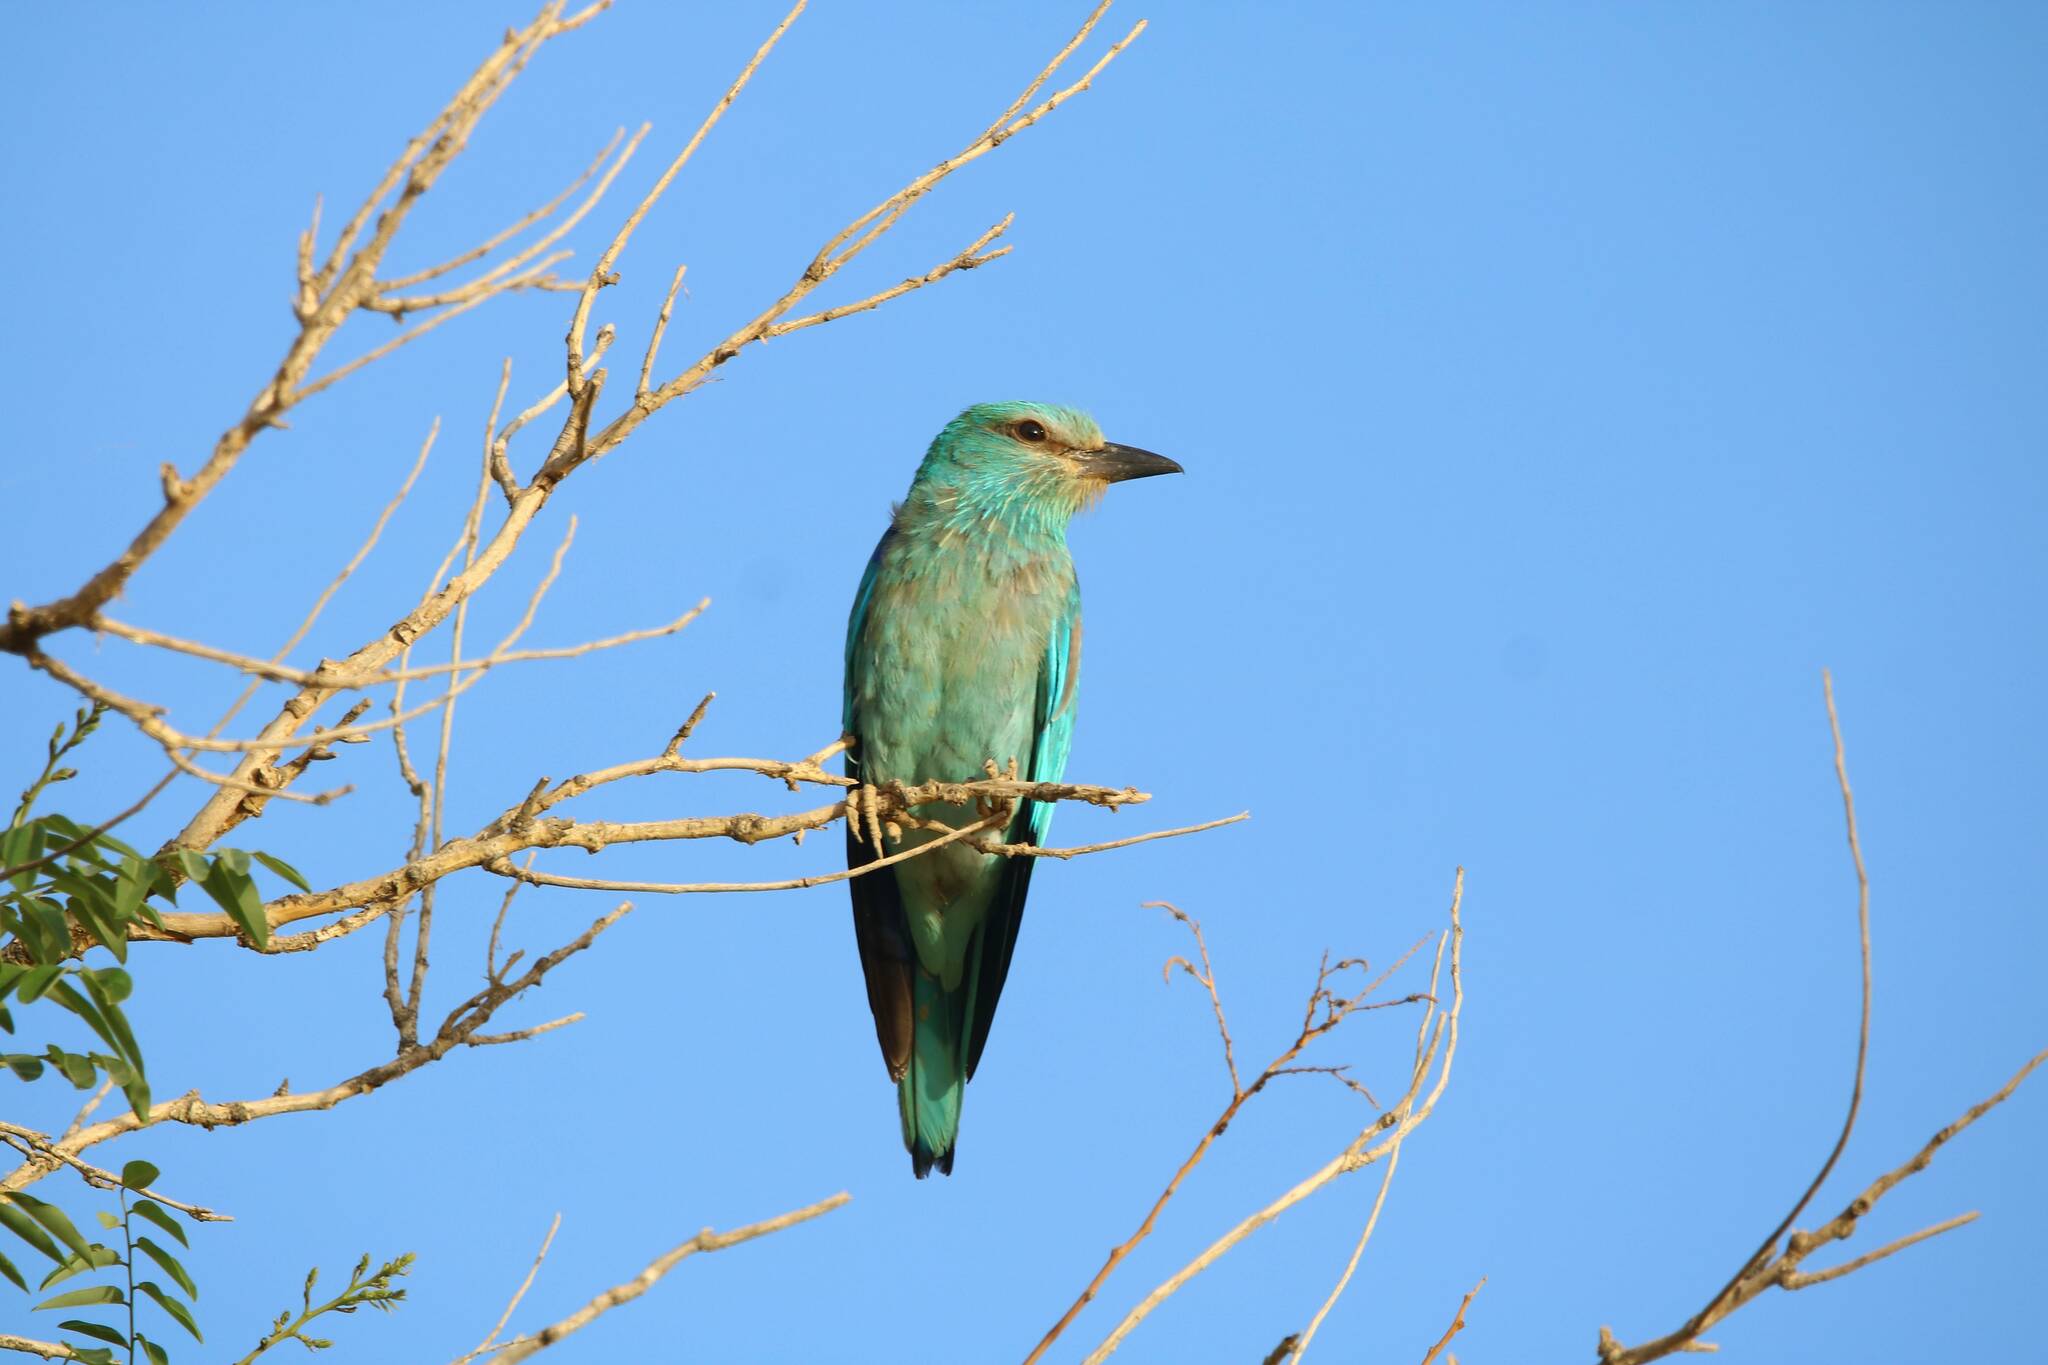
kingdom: Animalia
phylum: Chordata
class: Aves
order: Coraciiformes
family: Coraciidae
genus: Coracias
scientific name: Coracias garrulus
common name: European roller
